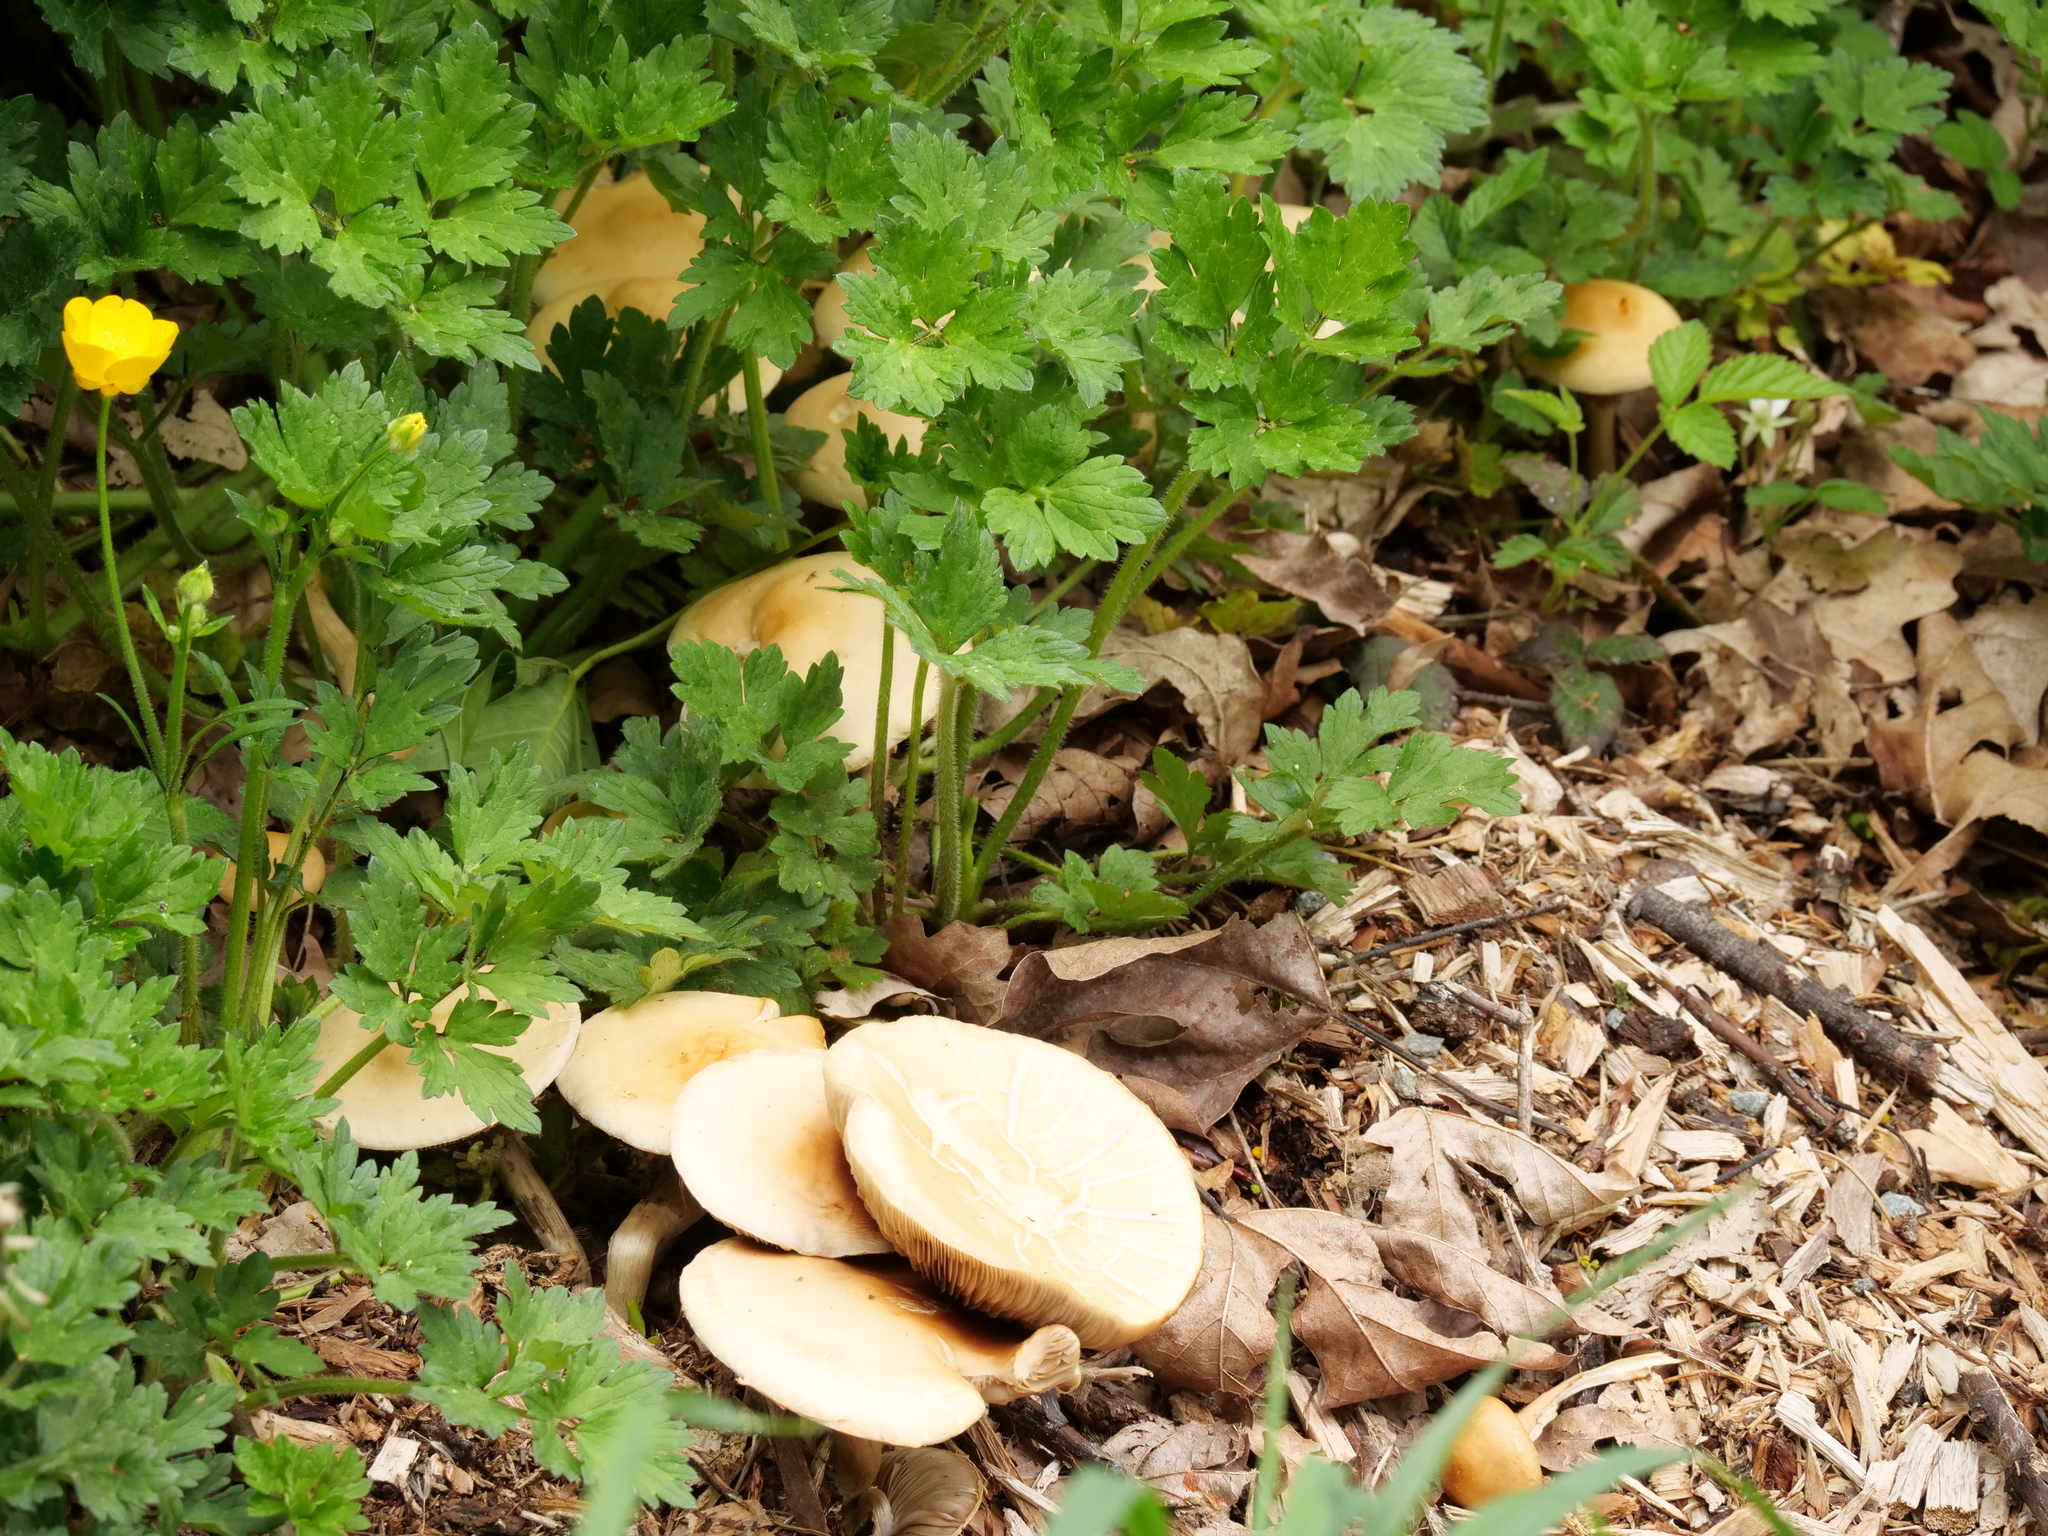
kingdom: Fungi
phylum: Basidiomycota
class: Agaricomycetes
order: Agaricales
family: Strophariaceae
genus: Agrocybe
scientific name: Agrocybe putaminum
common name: Mulch fieldcap
